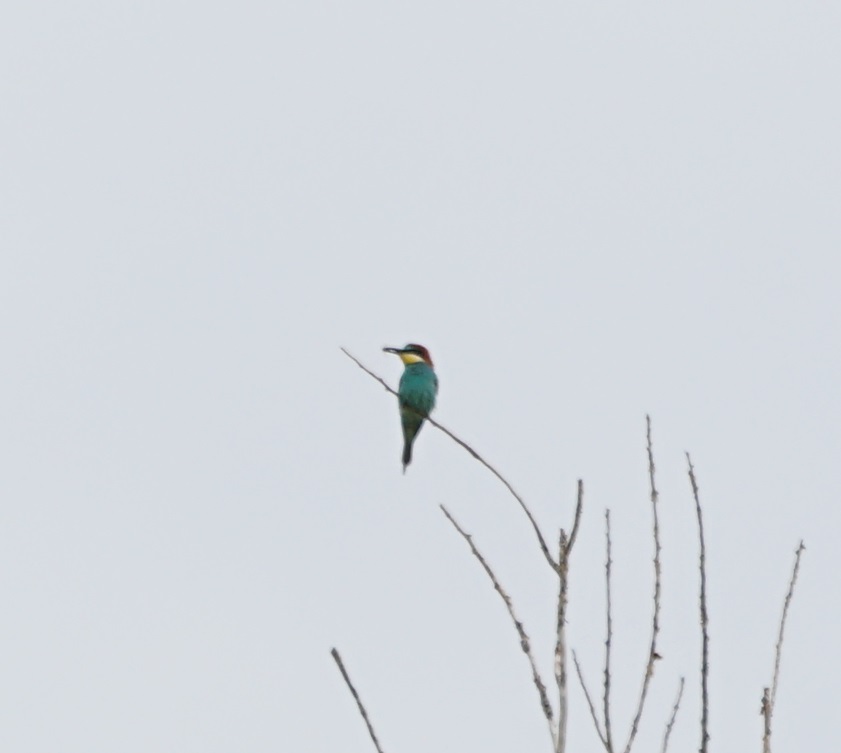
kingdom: Animalia
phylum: Chordata
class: Aves
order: Coraciiformes
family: Meropidae
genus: Merops
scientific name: Merops apiaster
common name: European bee-eater
